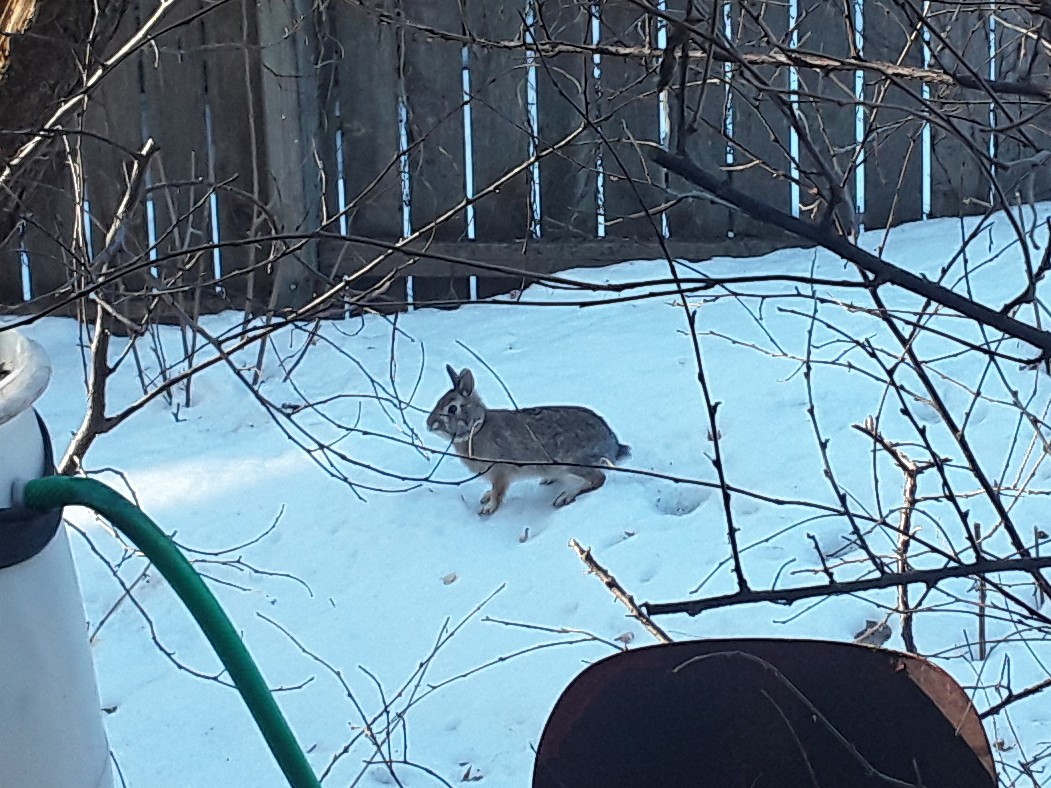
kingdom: Animalia
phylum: Chordata
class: Mammalia
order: Lagomorpha
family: Leporidae
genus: Sylvilagus
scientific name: Sylvilagus floridanus
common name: Eastern cottontail
